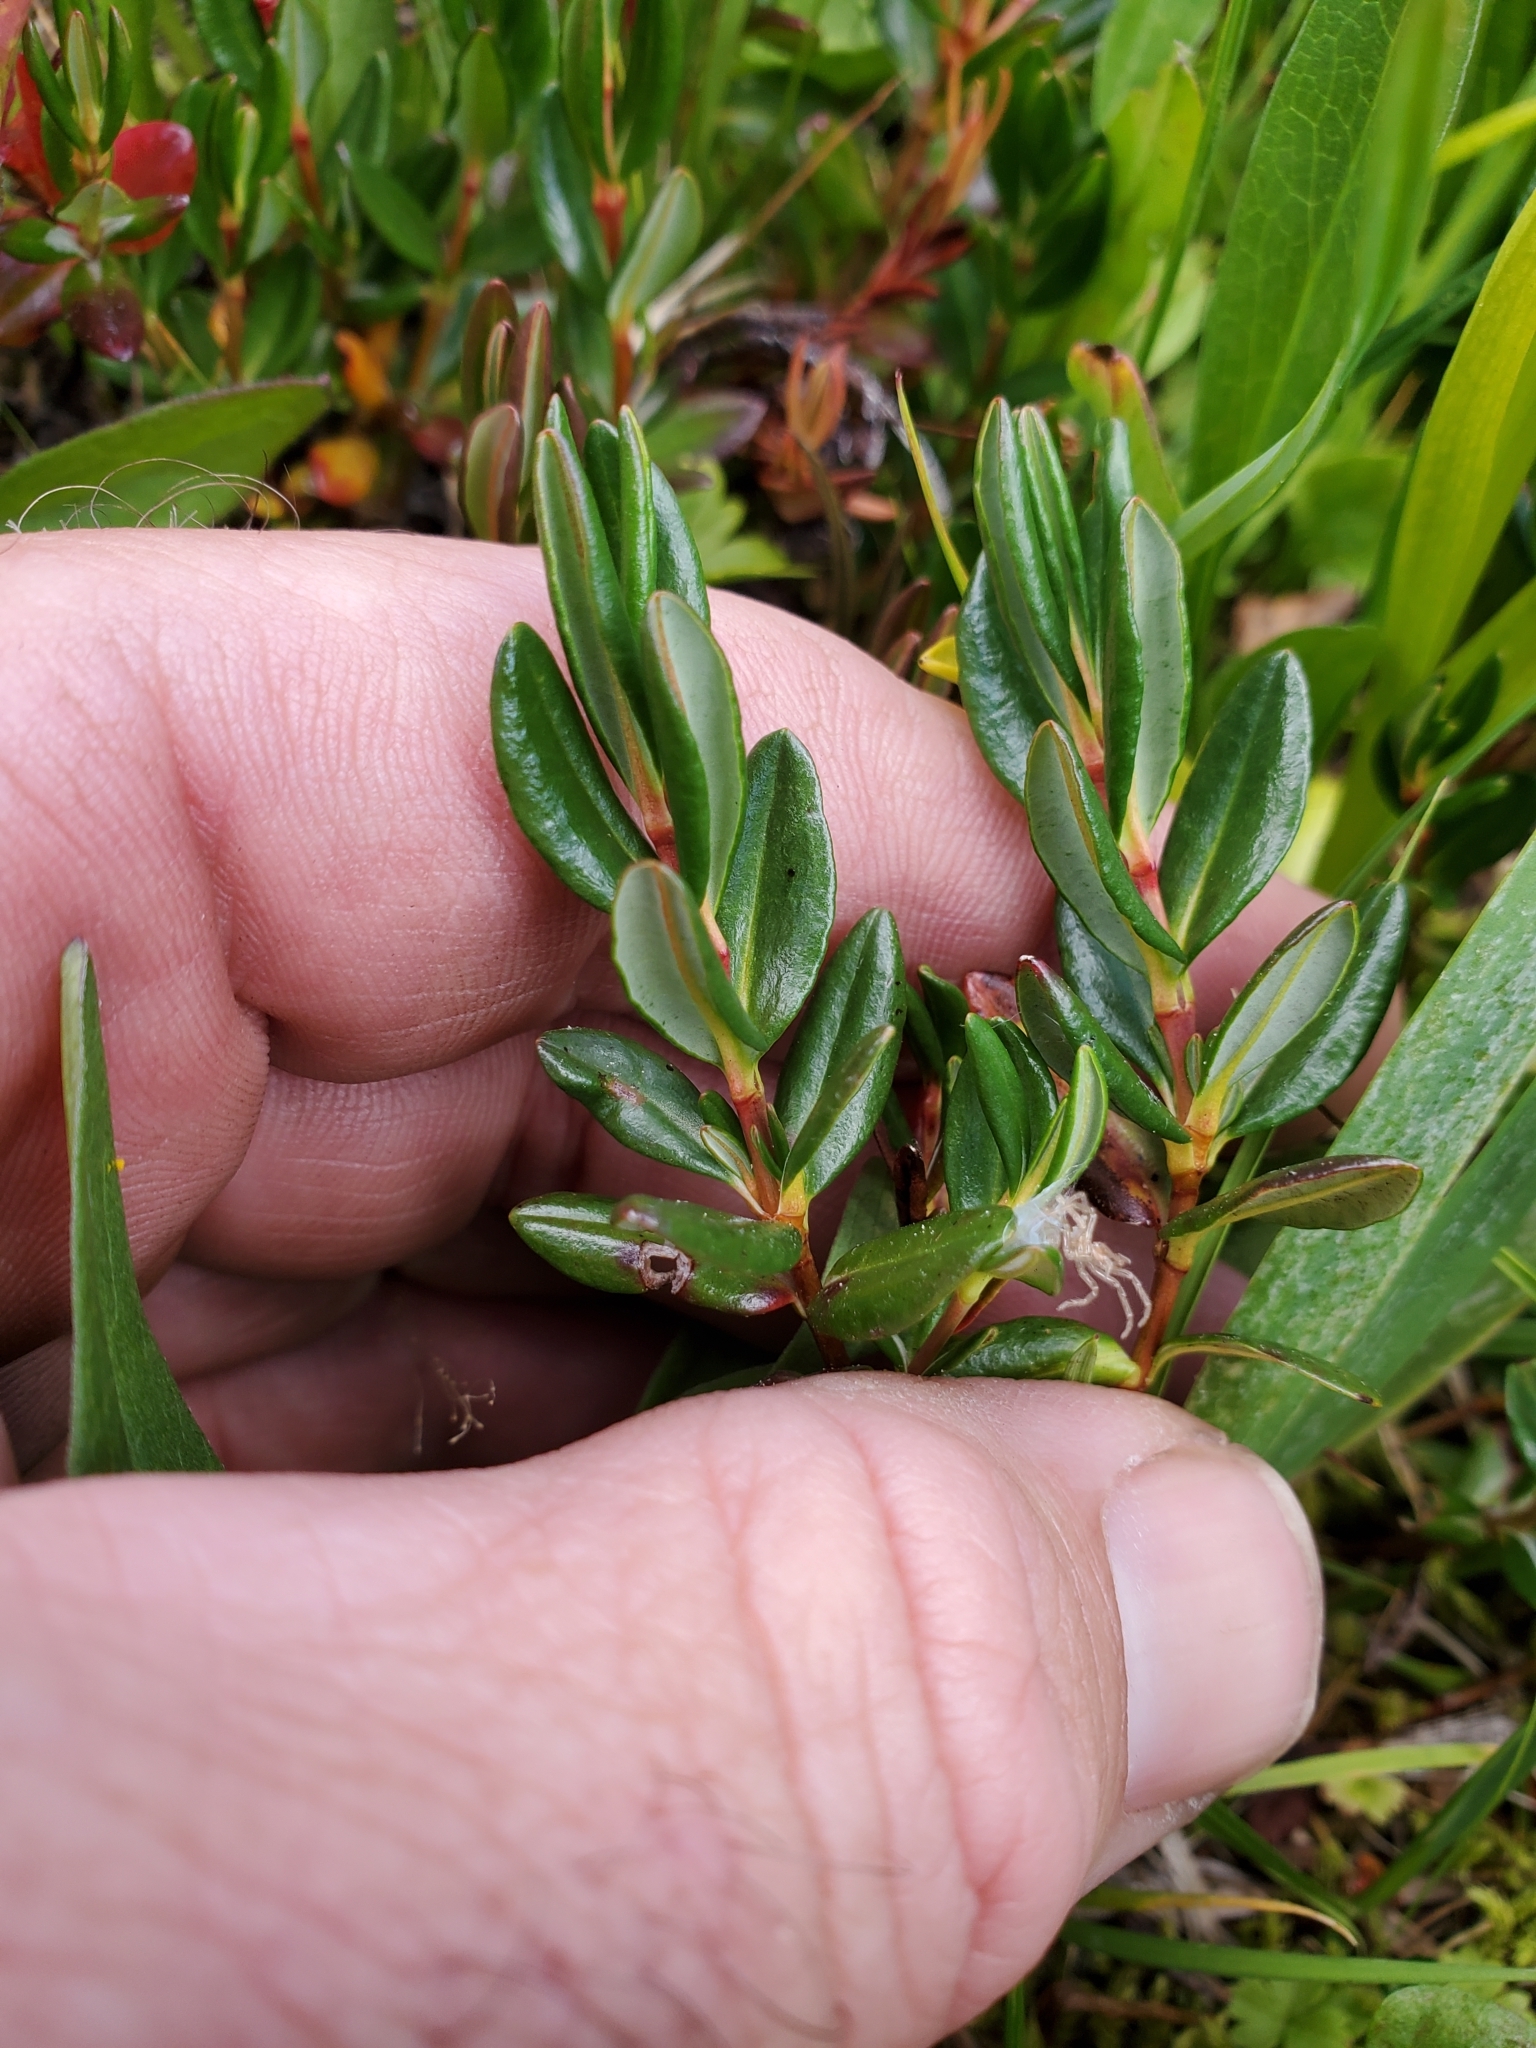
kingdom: Plantae
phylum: Tracheophyta
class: Magnoliopsida
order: Ericales
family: Ericaceae
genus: Kalmia
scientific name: Kalmia microphylla
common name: Alpine bog laurel
